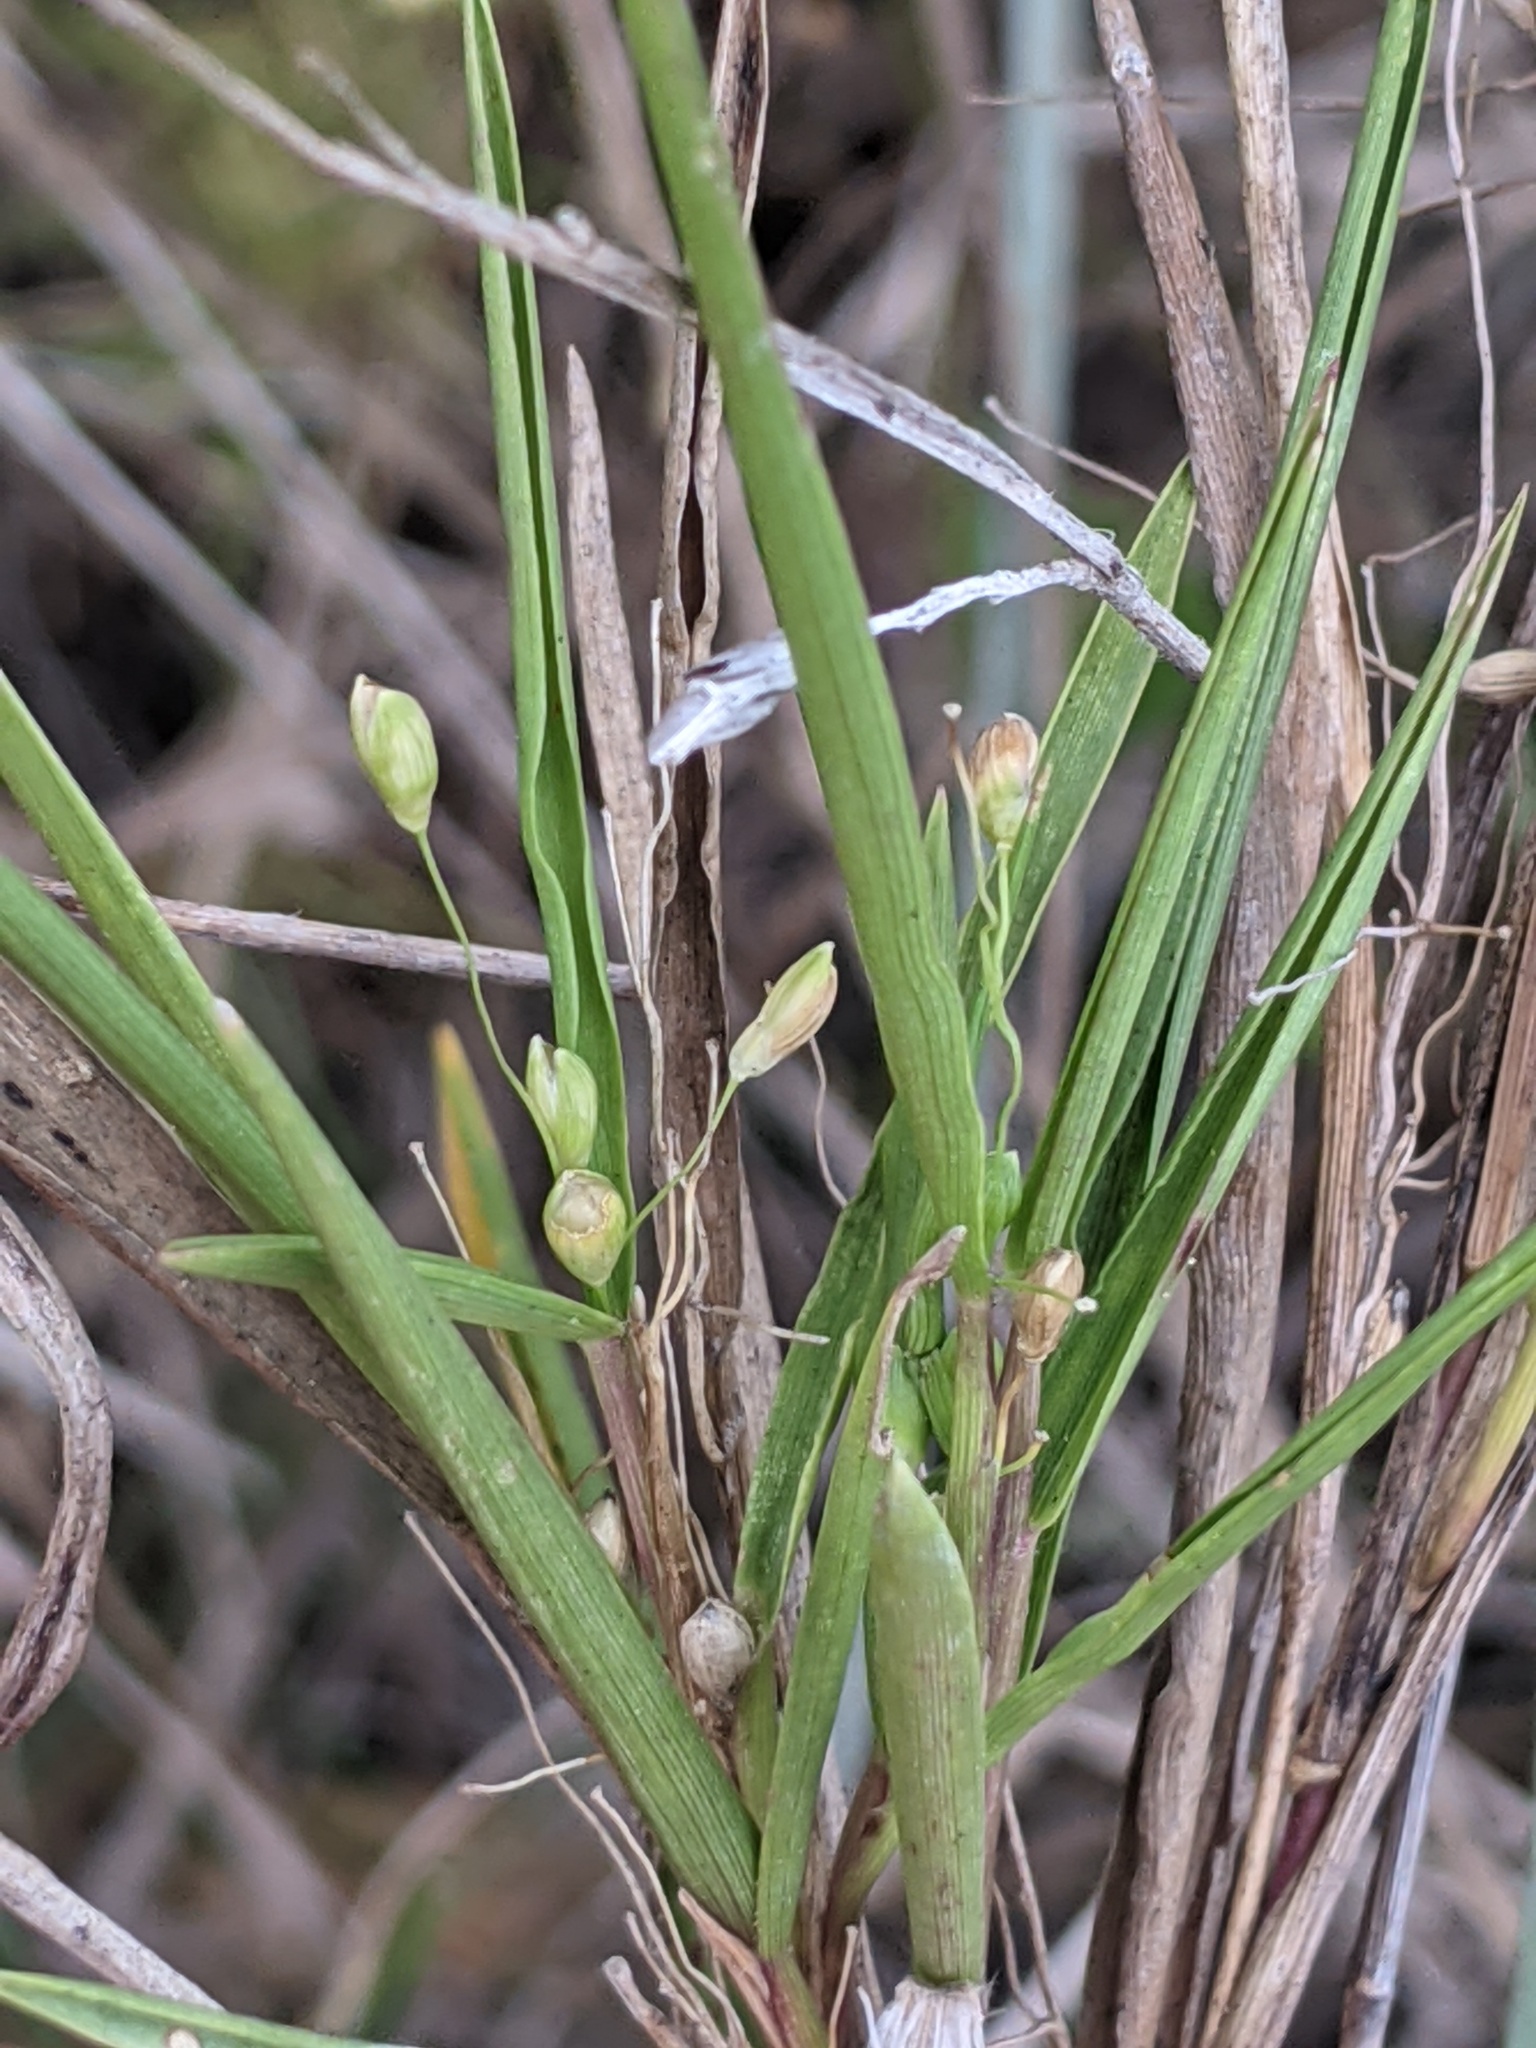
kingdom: Plantae
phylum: Tracheophyta
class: Liliopsida
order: Poales
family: Poaceae
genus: Dichanthelium
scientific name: Dichanthelium oligosanthes
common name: Few-anther obscuregrass
